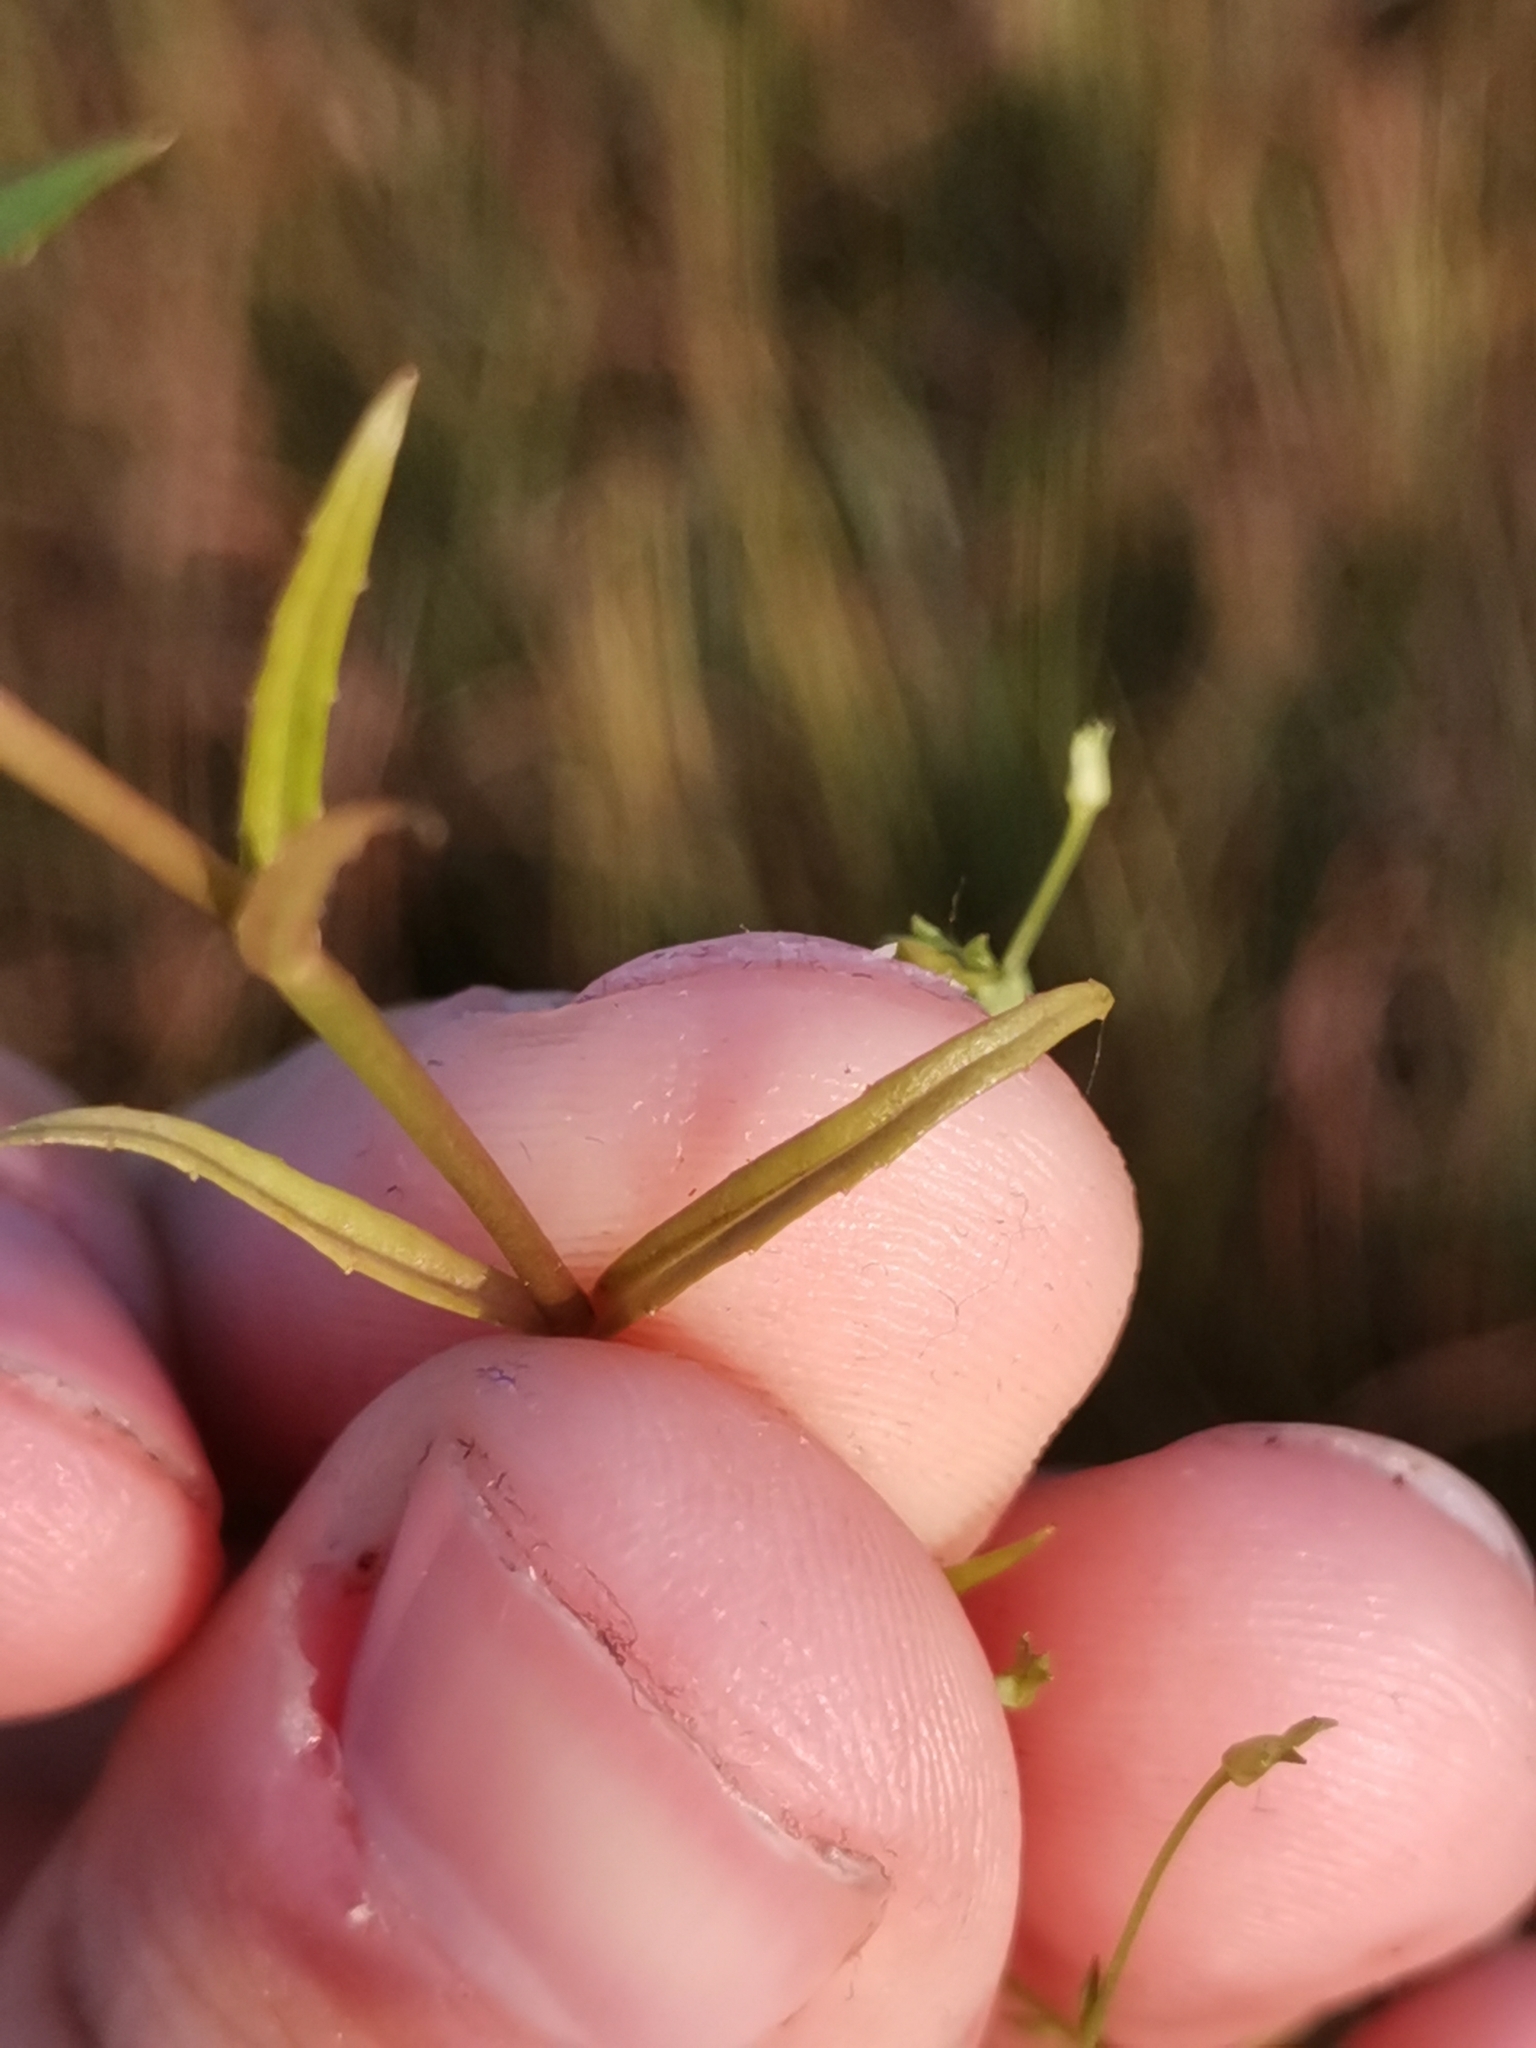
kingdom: Plantae
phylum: Tracheophyta
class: Magnoliopsida
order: Lamiales
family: Plantaginaceae
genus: Veronica
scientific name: Veronica scutellata
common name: Marsh speedwell
